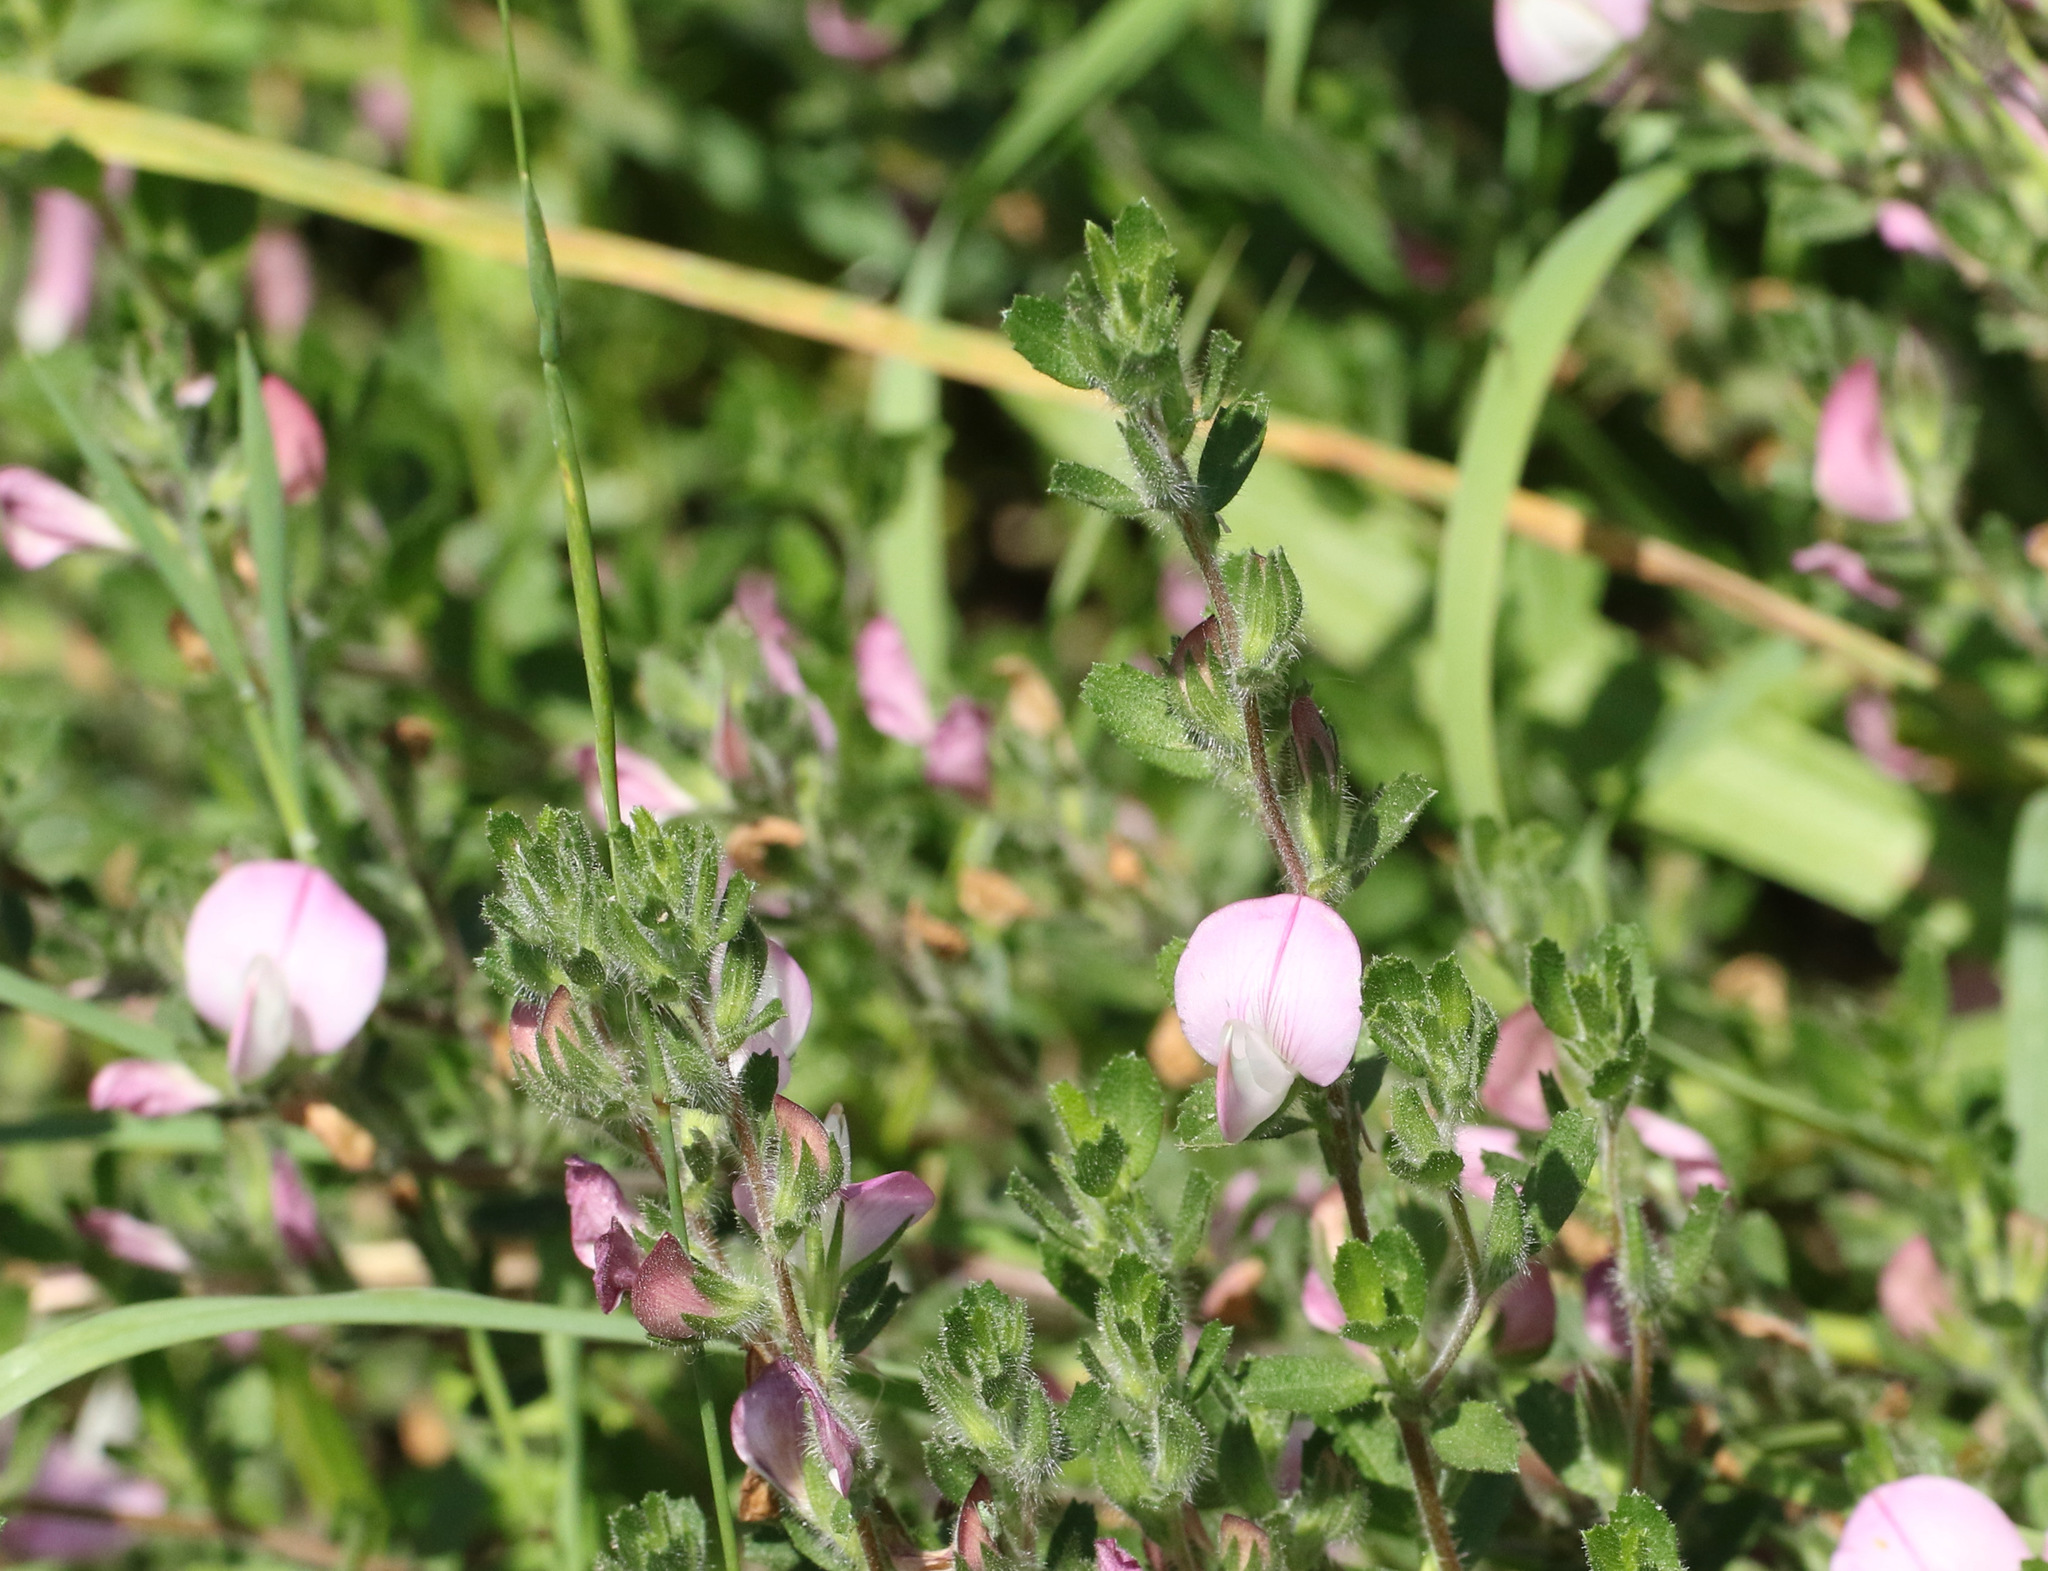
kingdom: Plantae
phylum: Tracheophyta
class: Magnoliopsida
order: Fabales
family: Fabaceae
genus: Ononis
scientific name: Ononis spinosa
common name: Spiny restharrow
